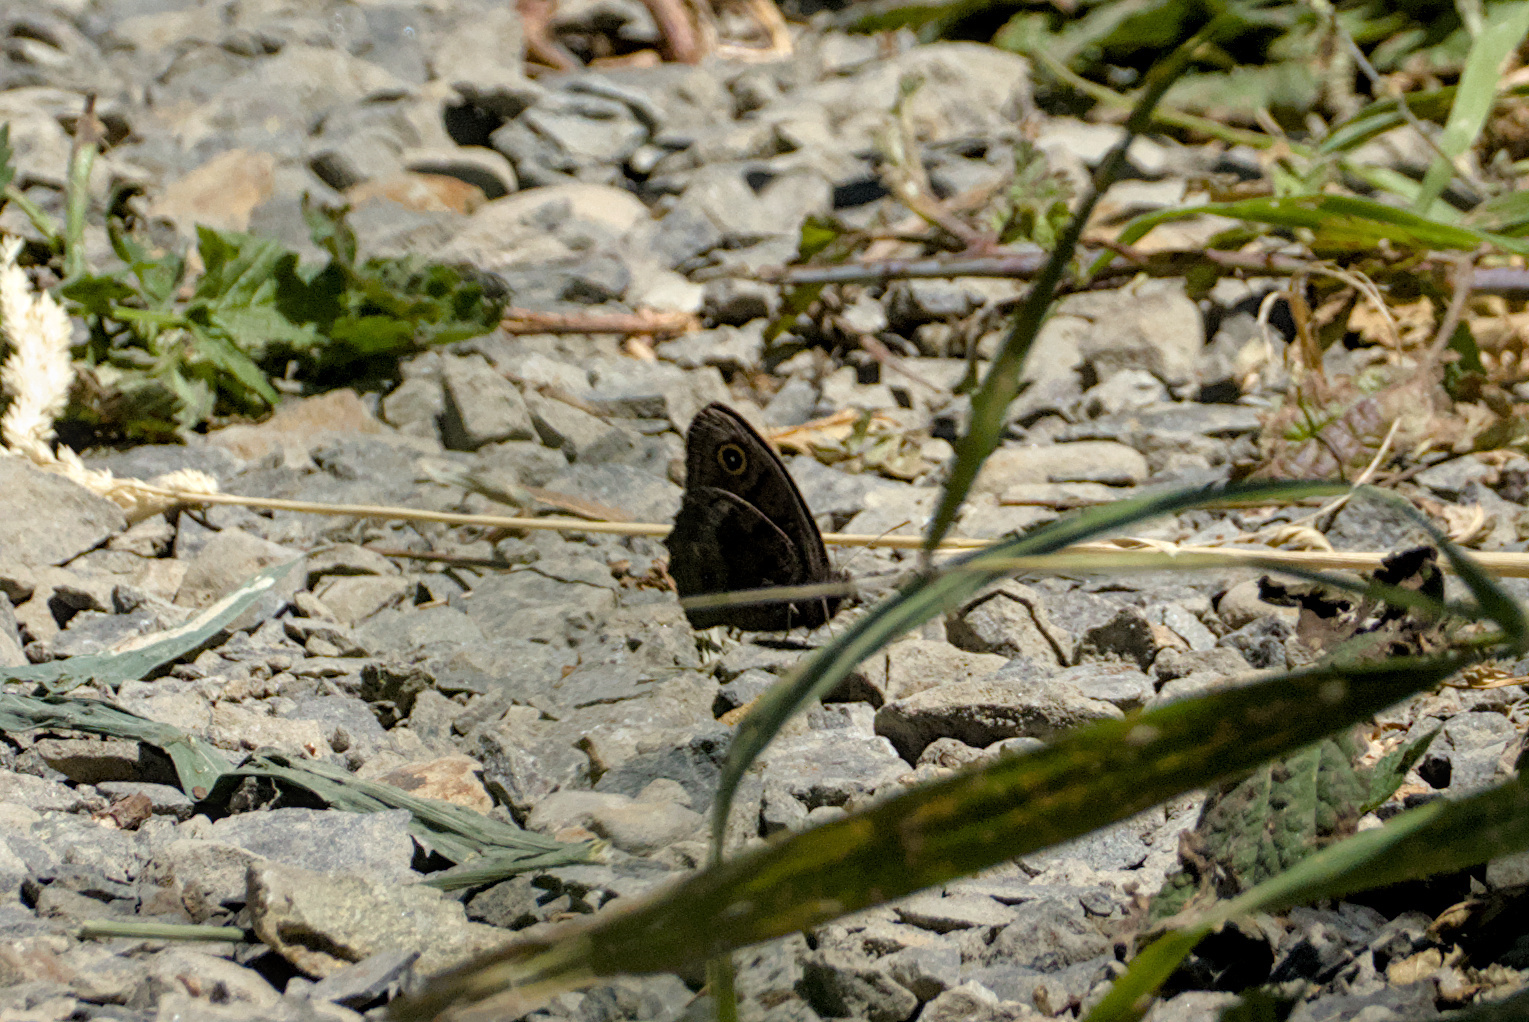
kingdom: Animalia
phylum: Arthropoda
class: Insecta
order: Lepidoptera
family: Nymphalidae
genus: Cercyonis
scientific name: Cercyonis pegala
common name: Common wood-nymph
